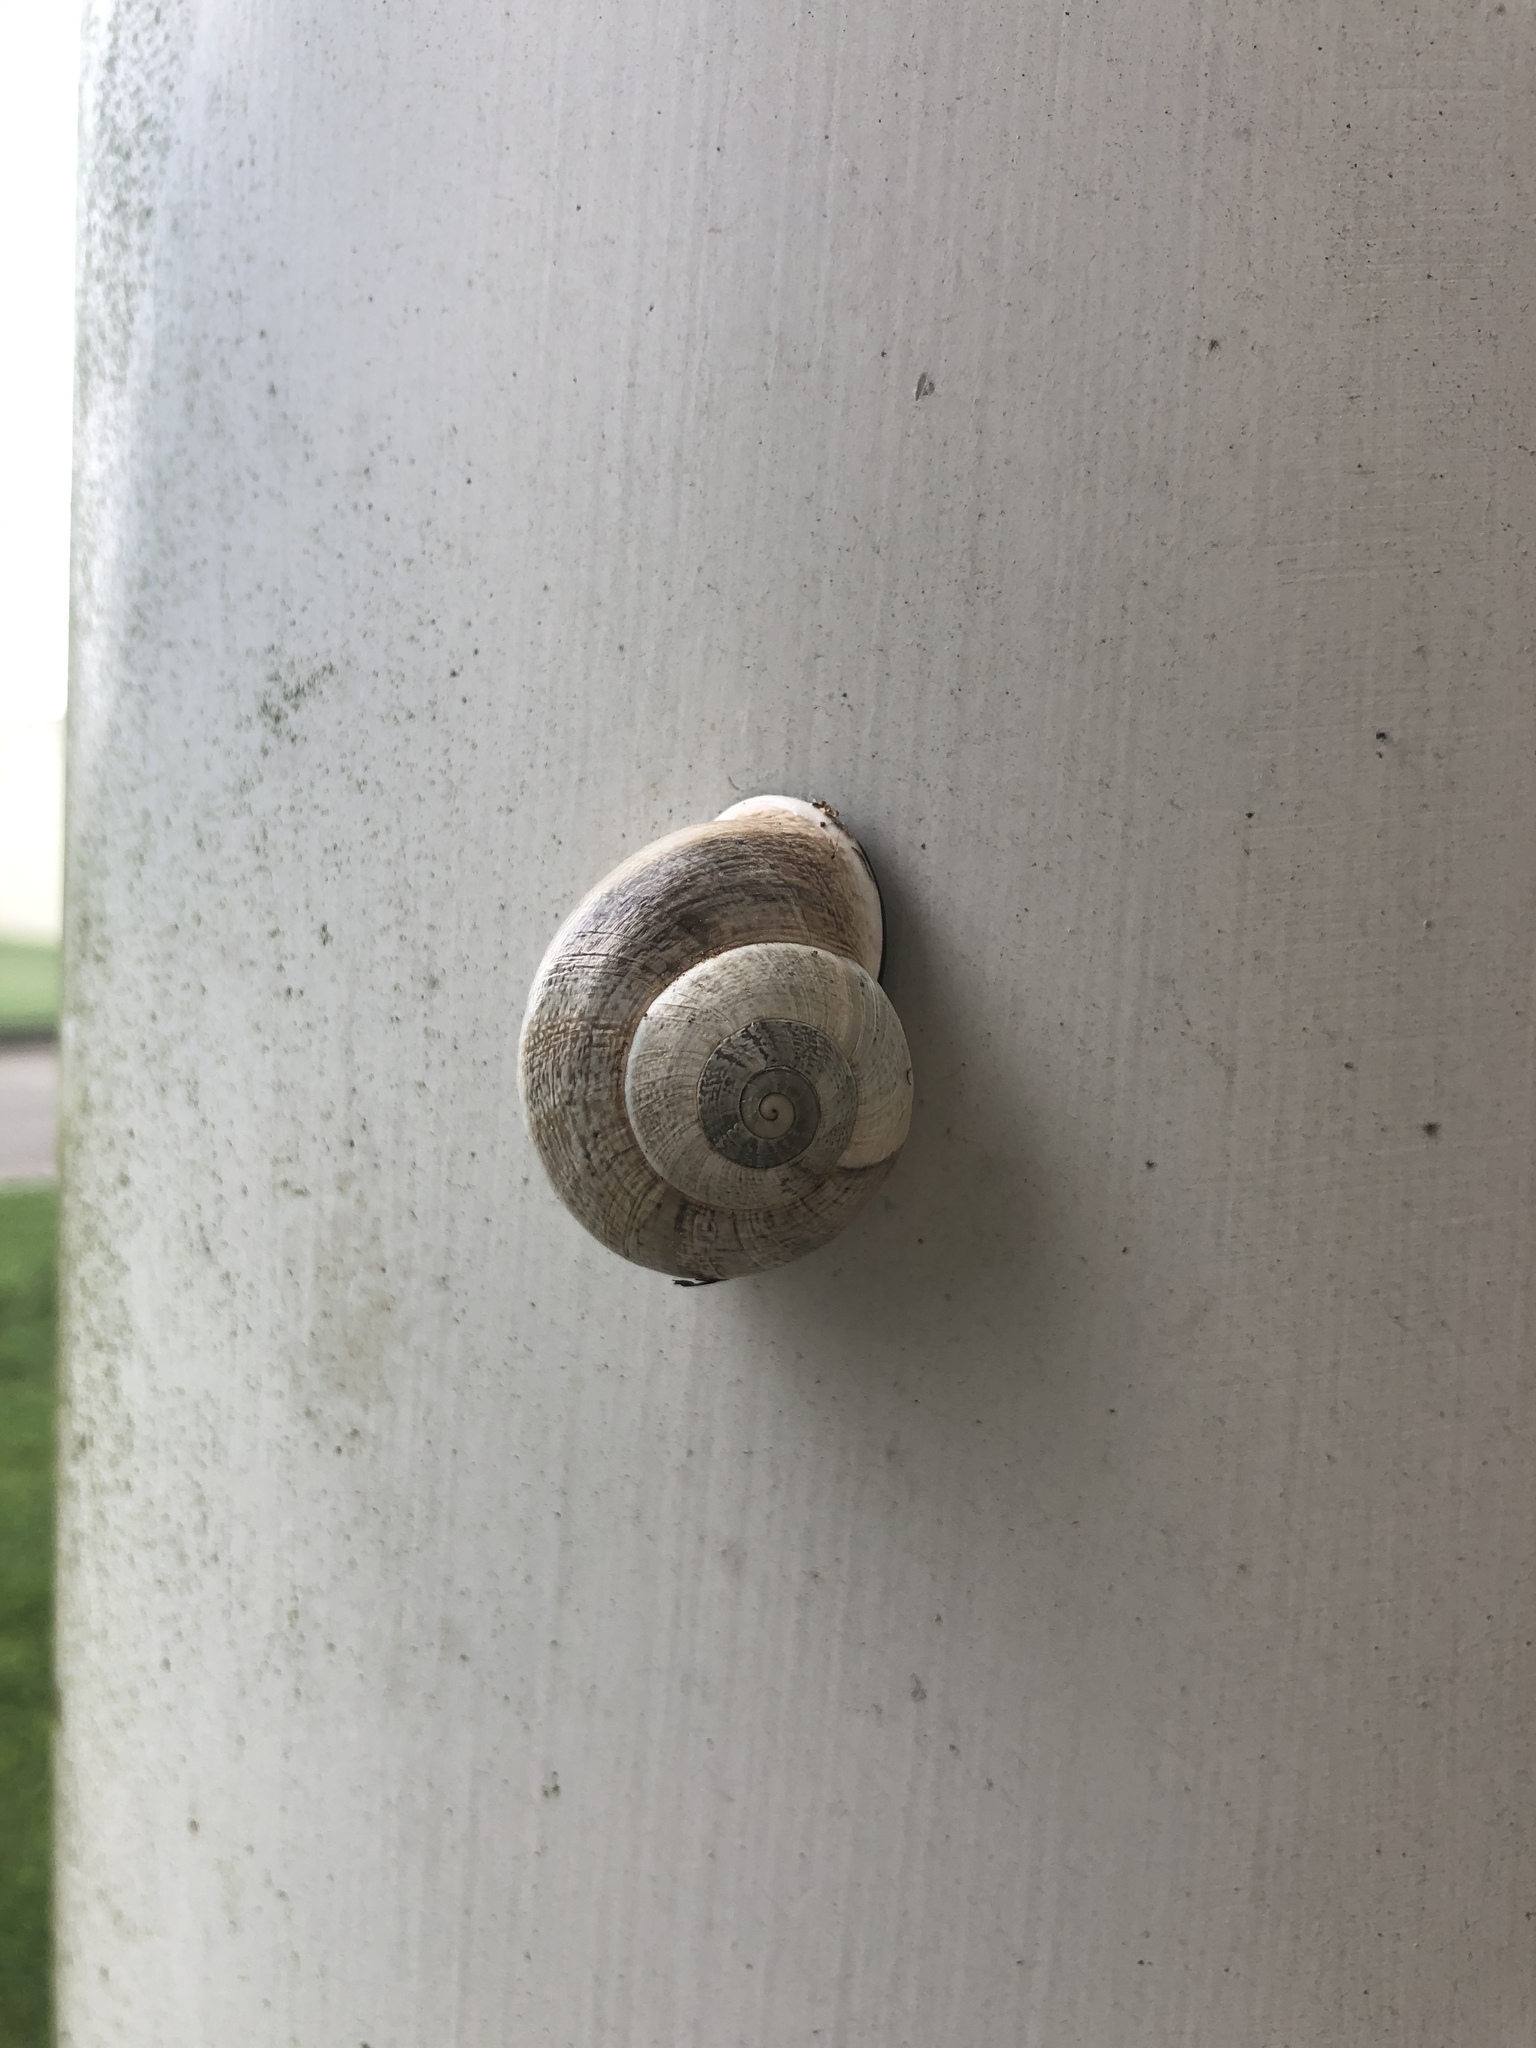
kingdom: Animalia
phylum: Mollusca
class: Gastropoda
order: Stylommatophora
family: Helicidae
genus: Otala
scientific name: Otala lactea
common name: Milk snail
